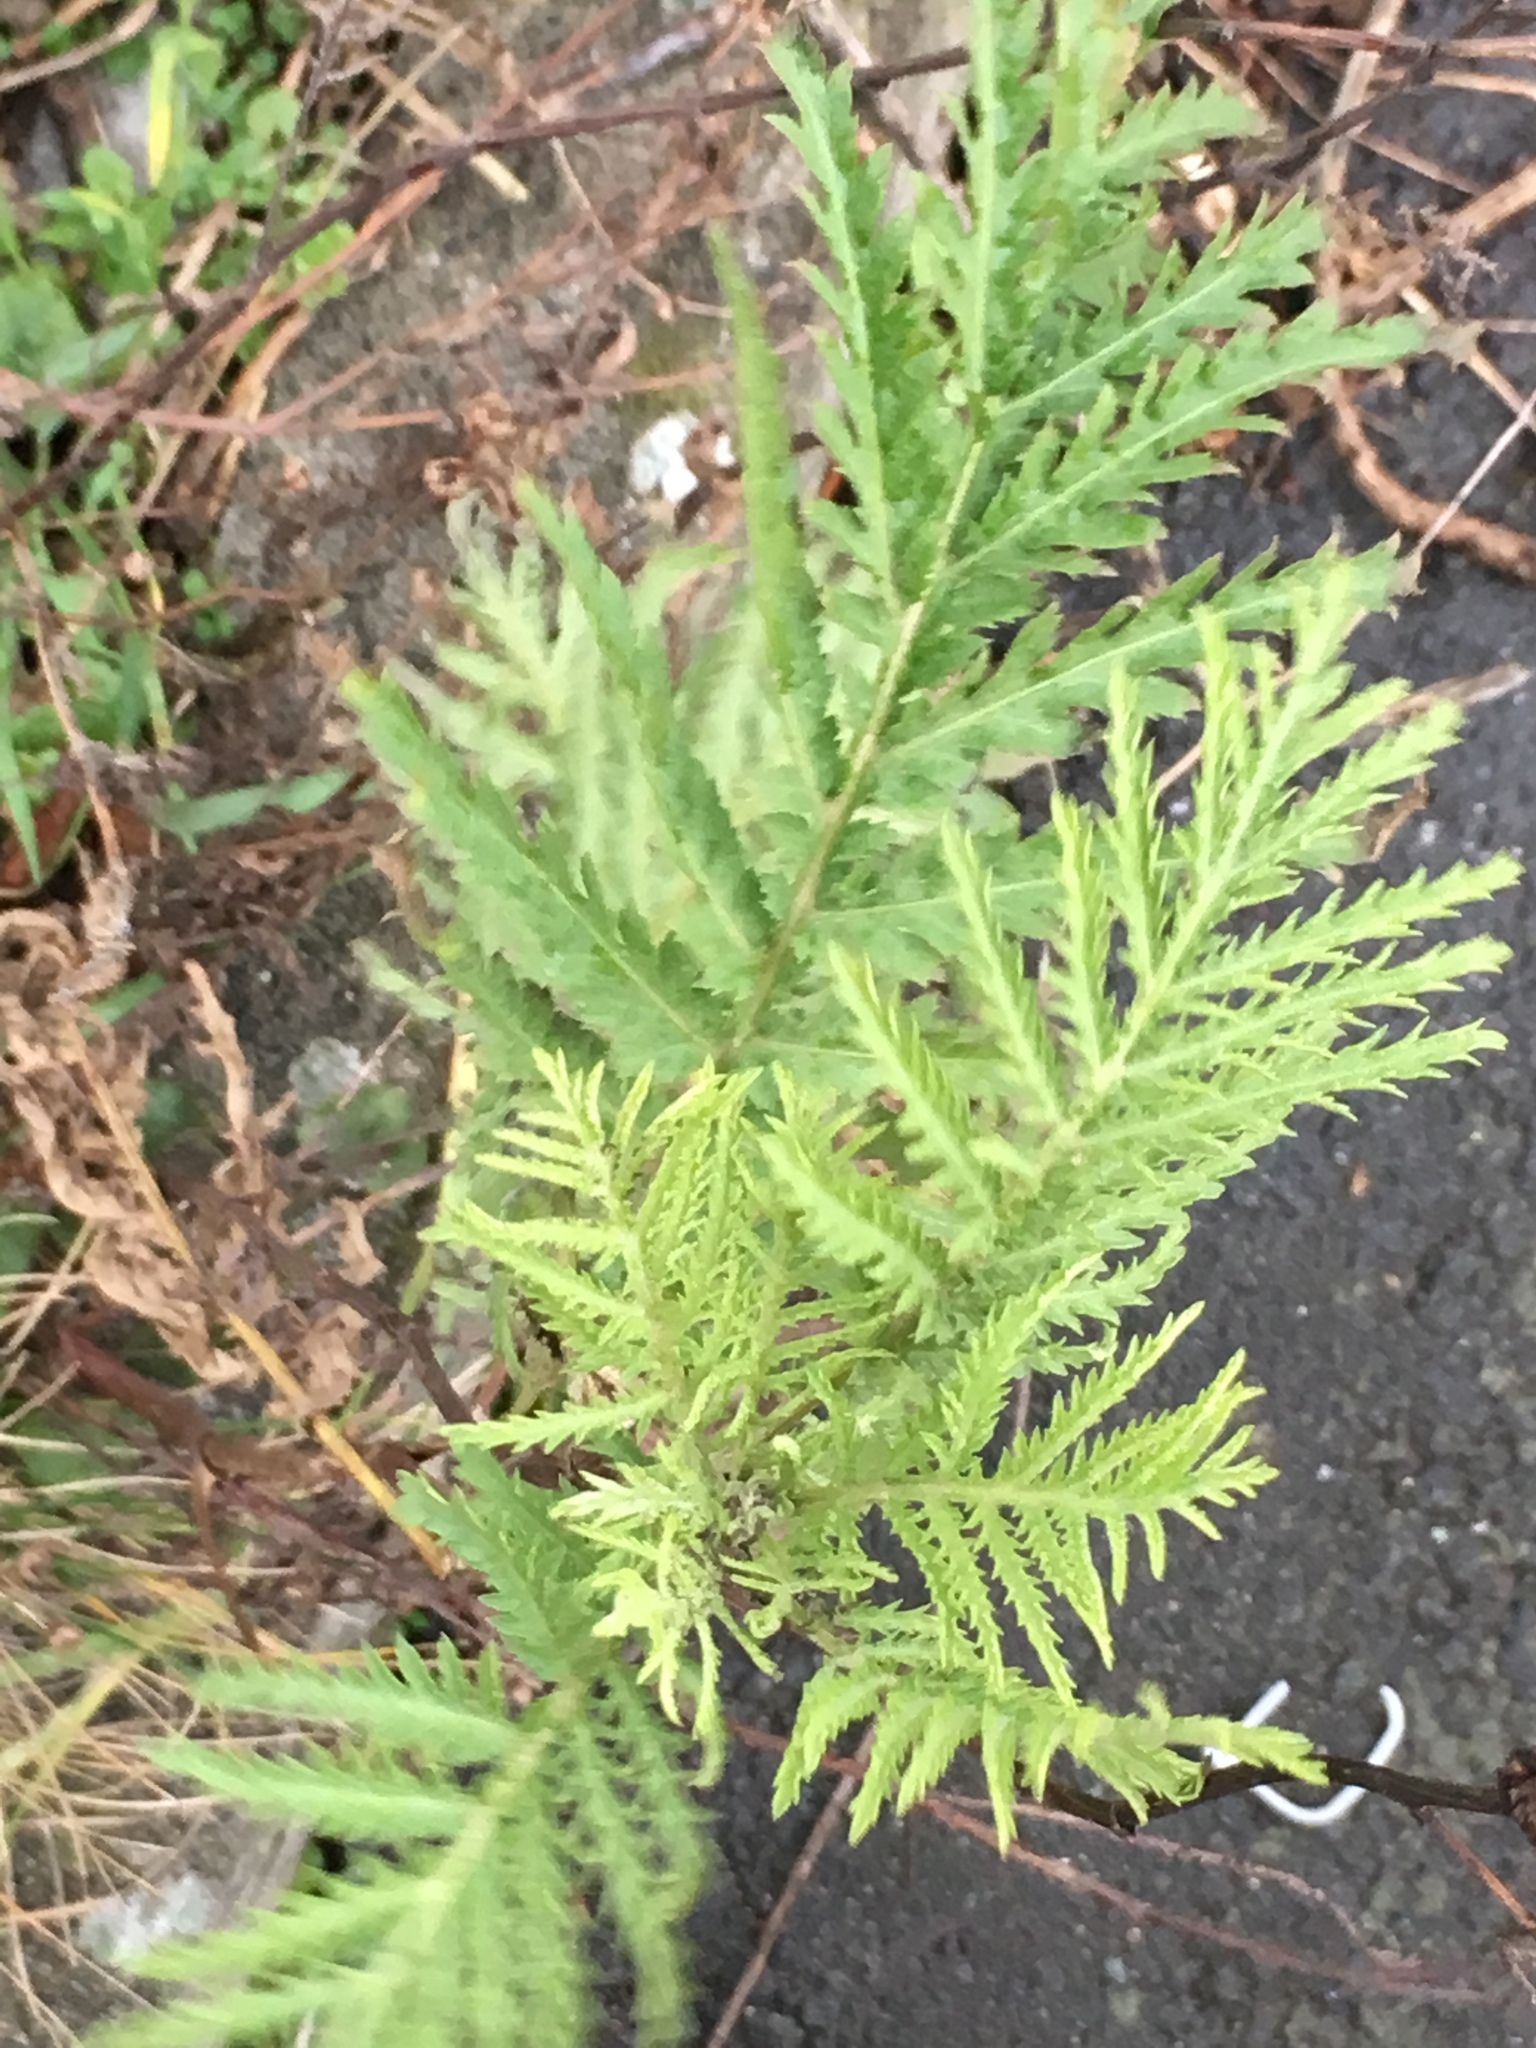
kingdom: Plantae
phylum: Tracheophyta
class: Magnoliopsida
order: Asterales
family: Asteraceae
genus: Tanacetum
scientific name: Tanacetum vulgare
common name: Common tansy
